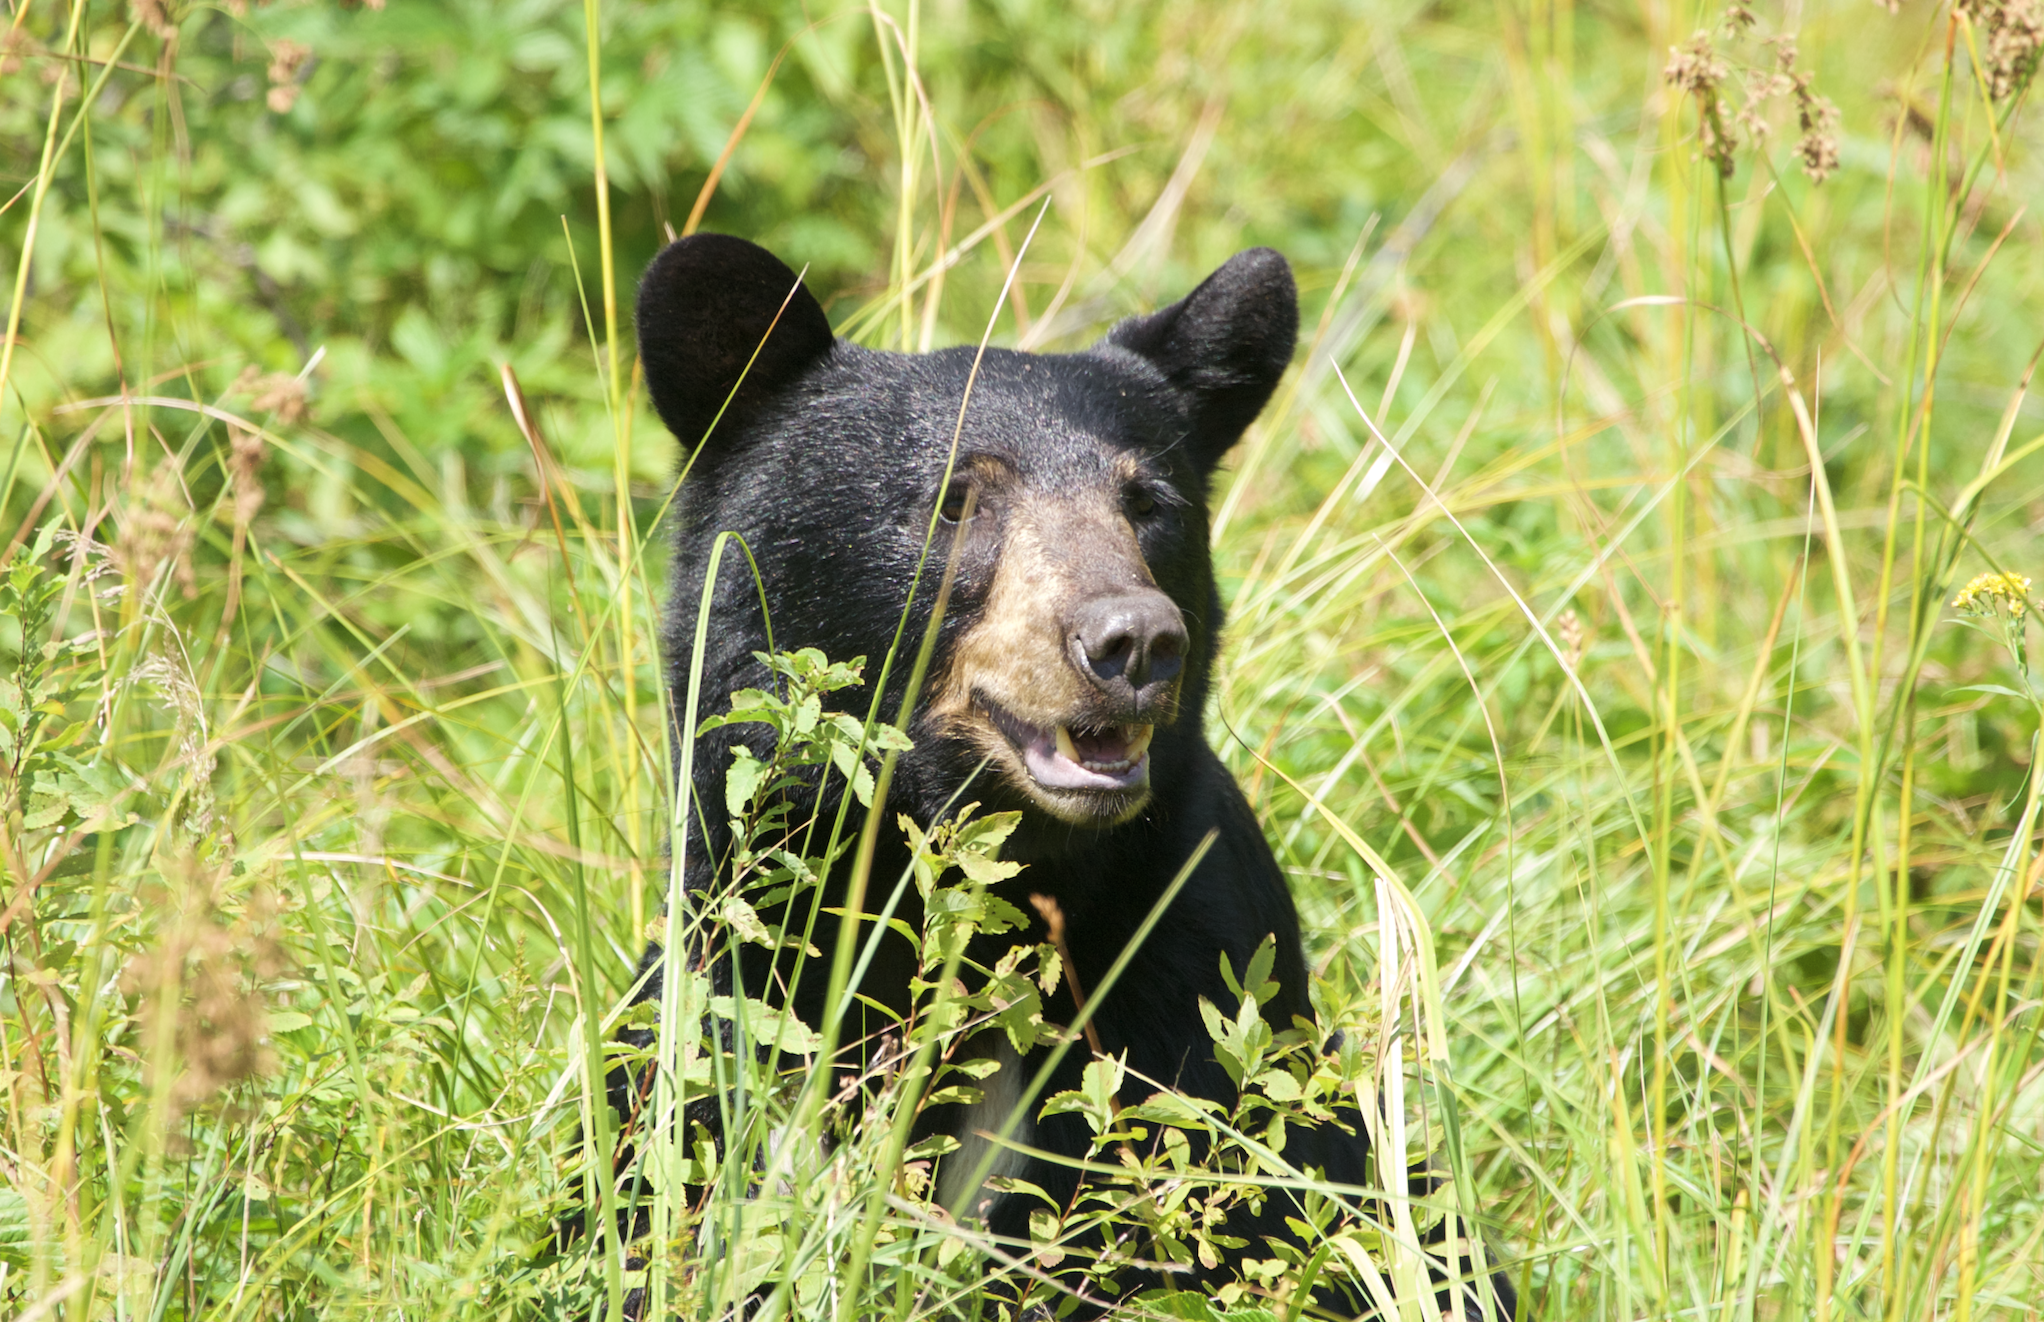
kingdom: Animalia
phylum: Chordata
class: Mammalia
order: Carnivora
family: Ursidae
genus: Ursus
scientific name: Ursus americanus
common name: American black bear
